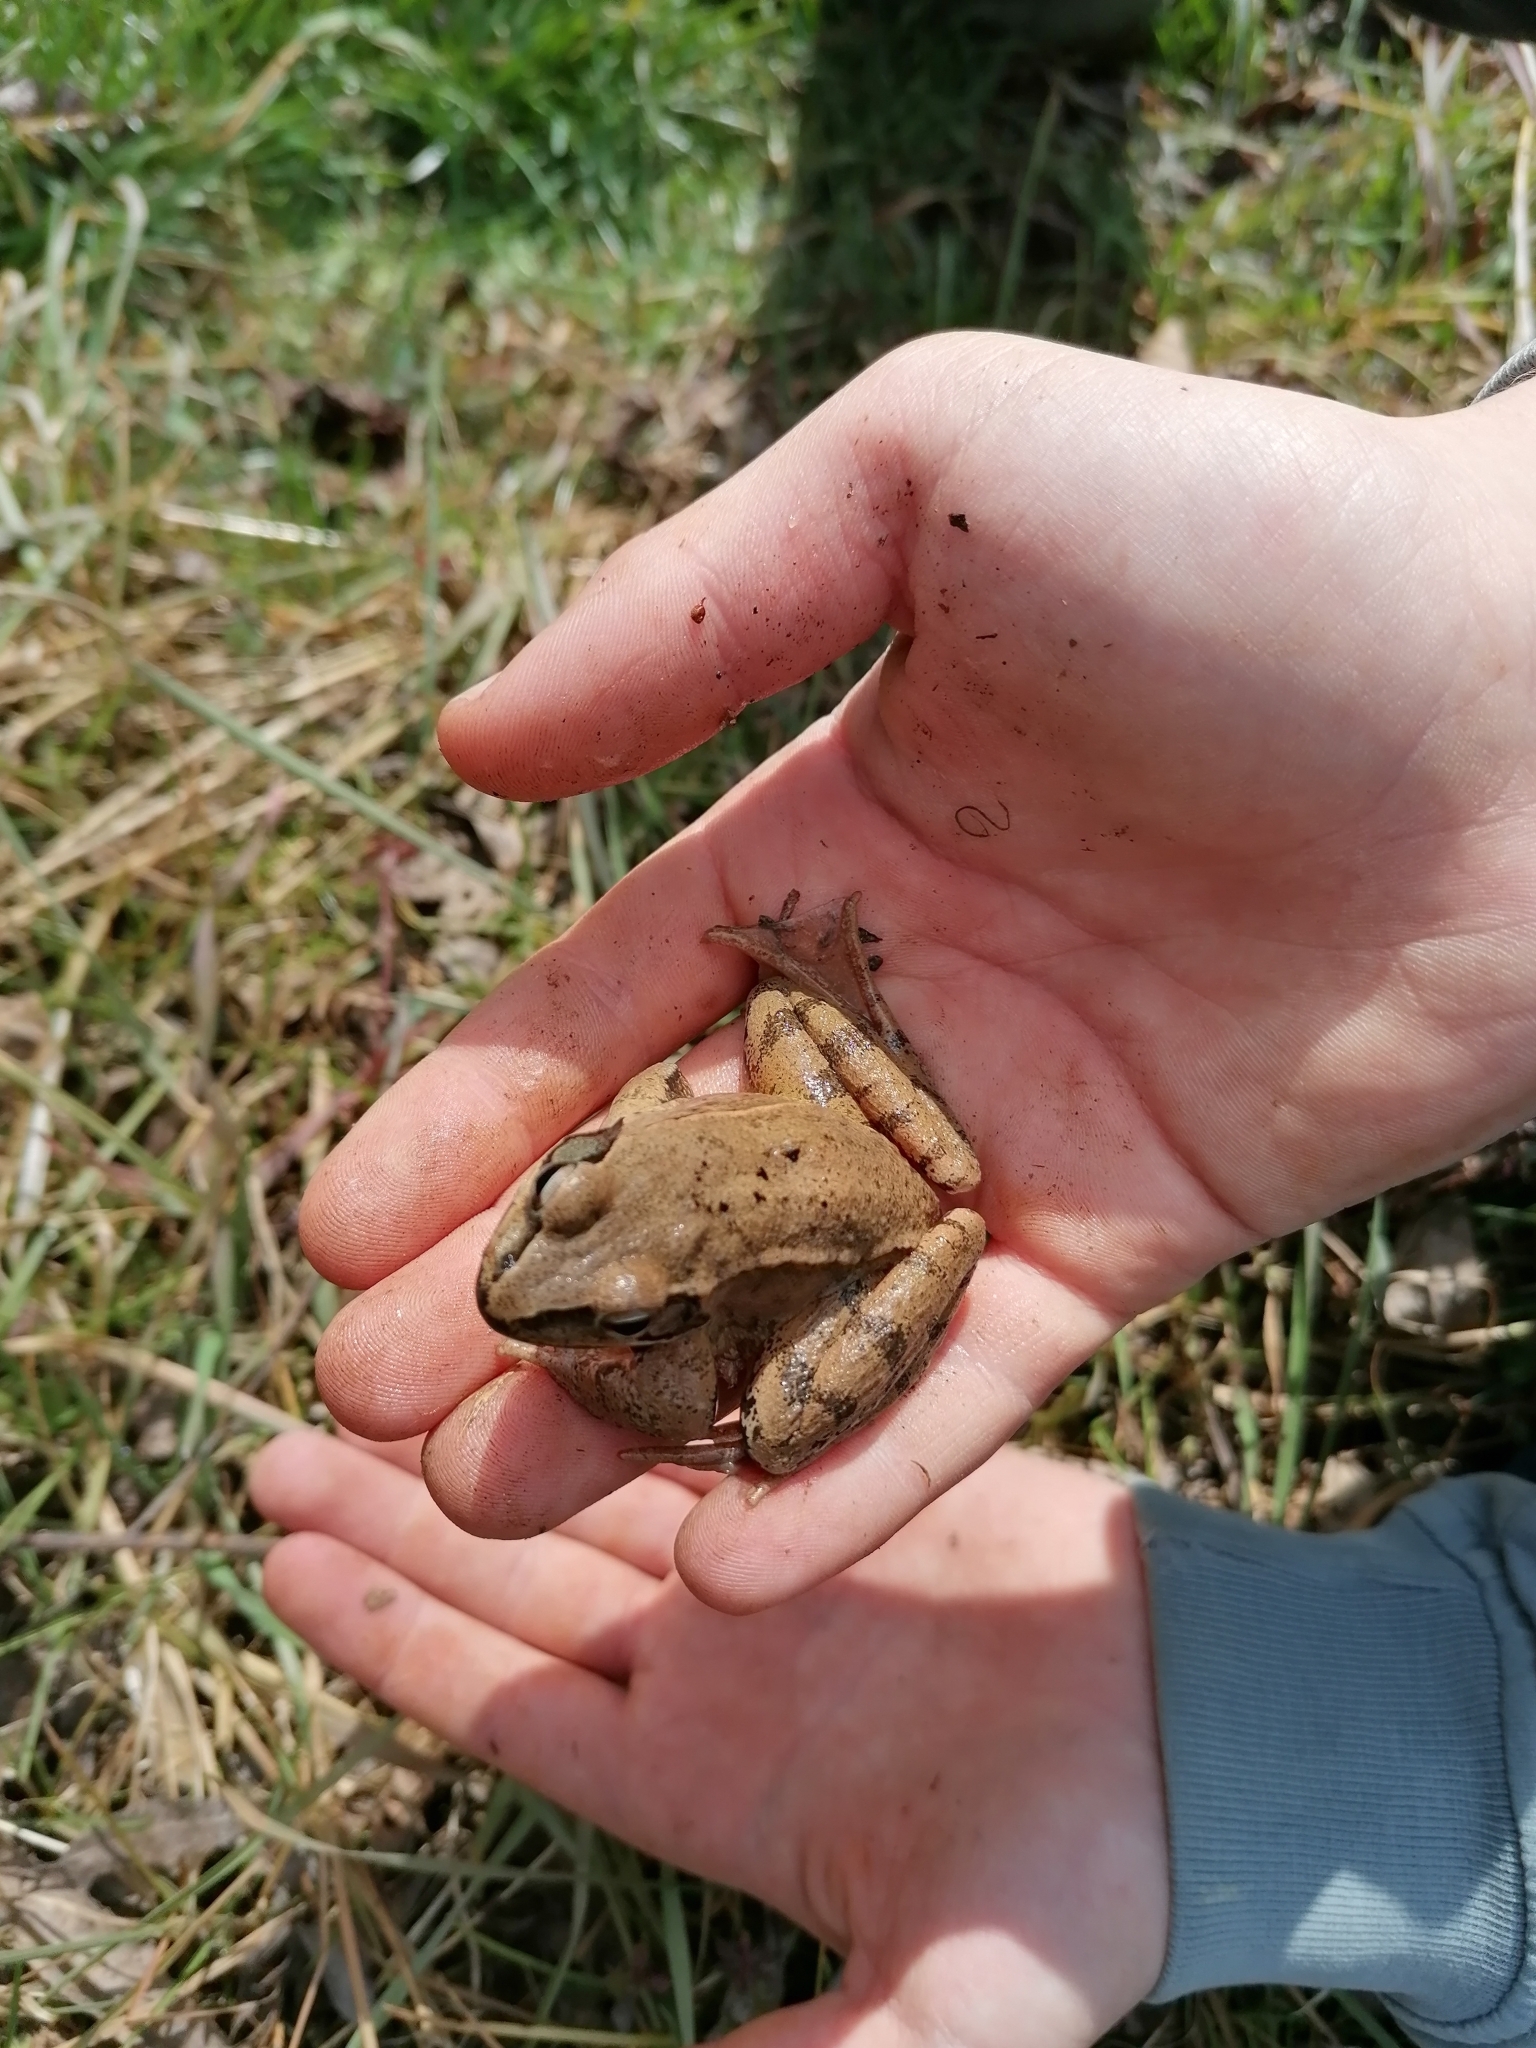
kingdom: Animalia
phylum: Chordata
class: Amphibia
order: Anura
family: Ranidae
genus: Rana
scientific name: Rana dalmatina
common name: Agile frog
